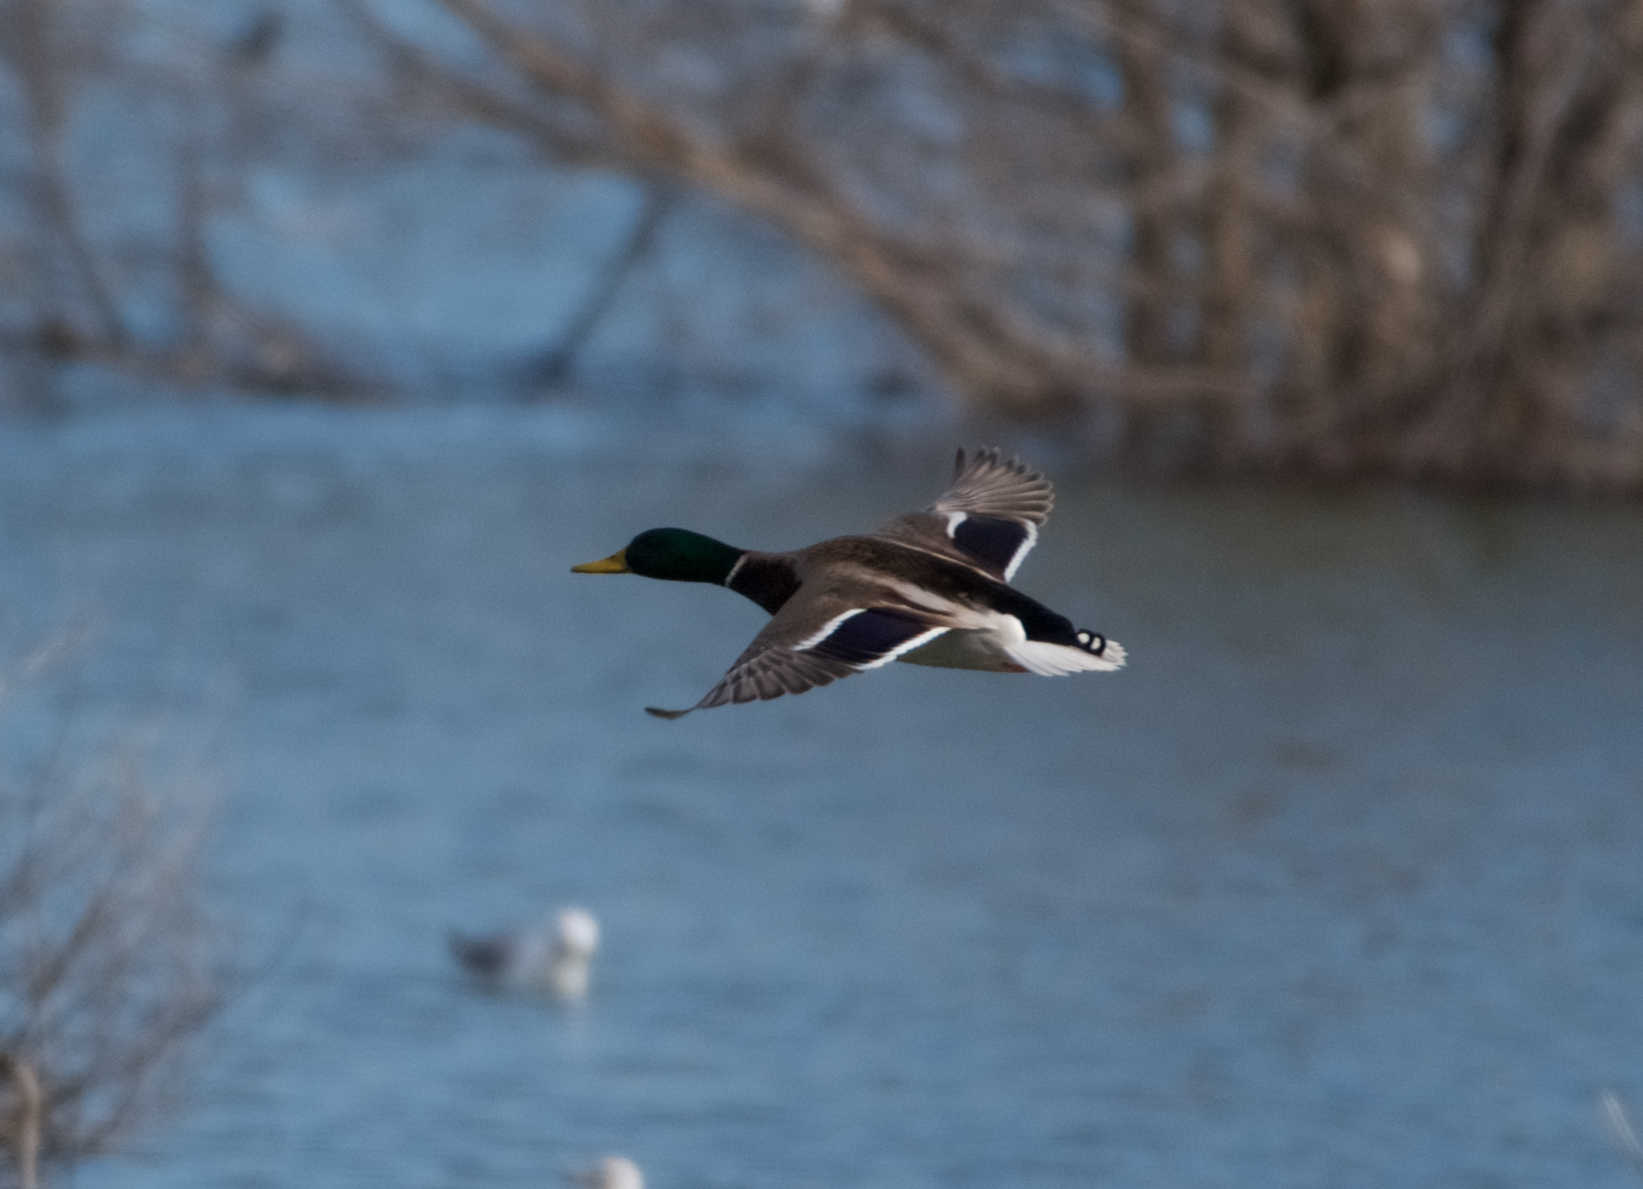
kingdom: Animalia
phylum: Chordata
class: Aves
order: Anseriformes
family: Anatidae
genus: Anas
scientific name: Anas platyrhynchos
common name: Mallard
